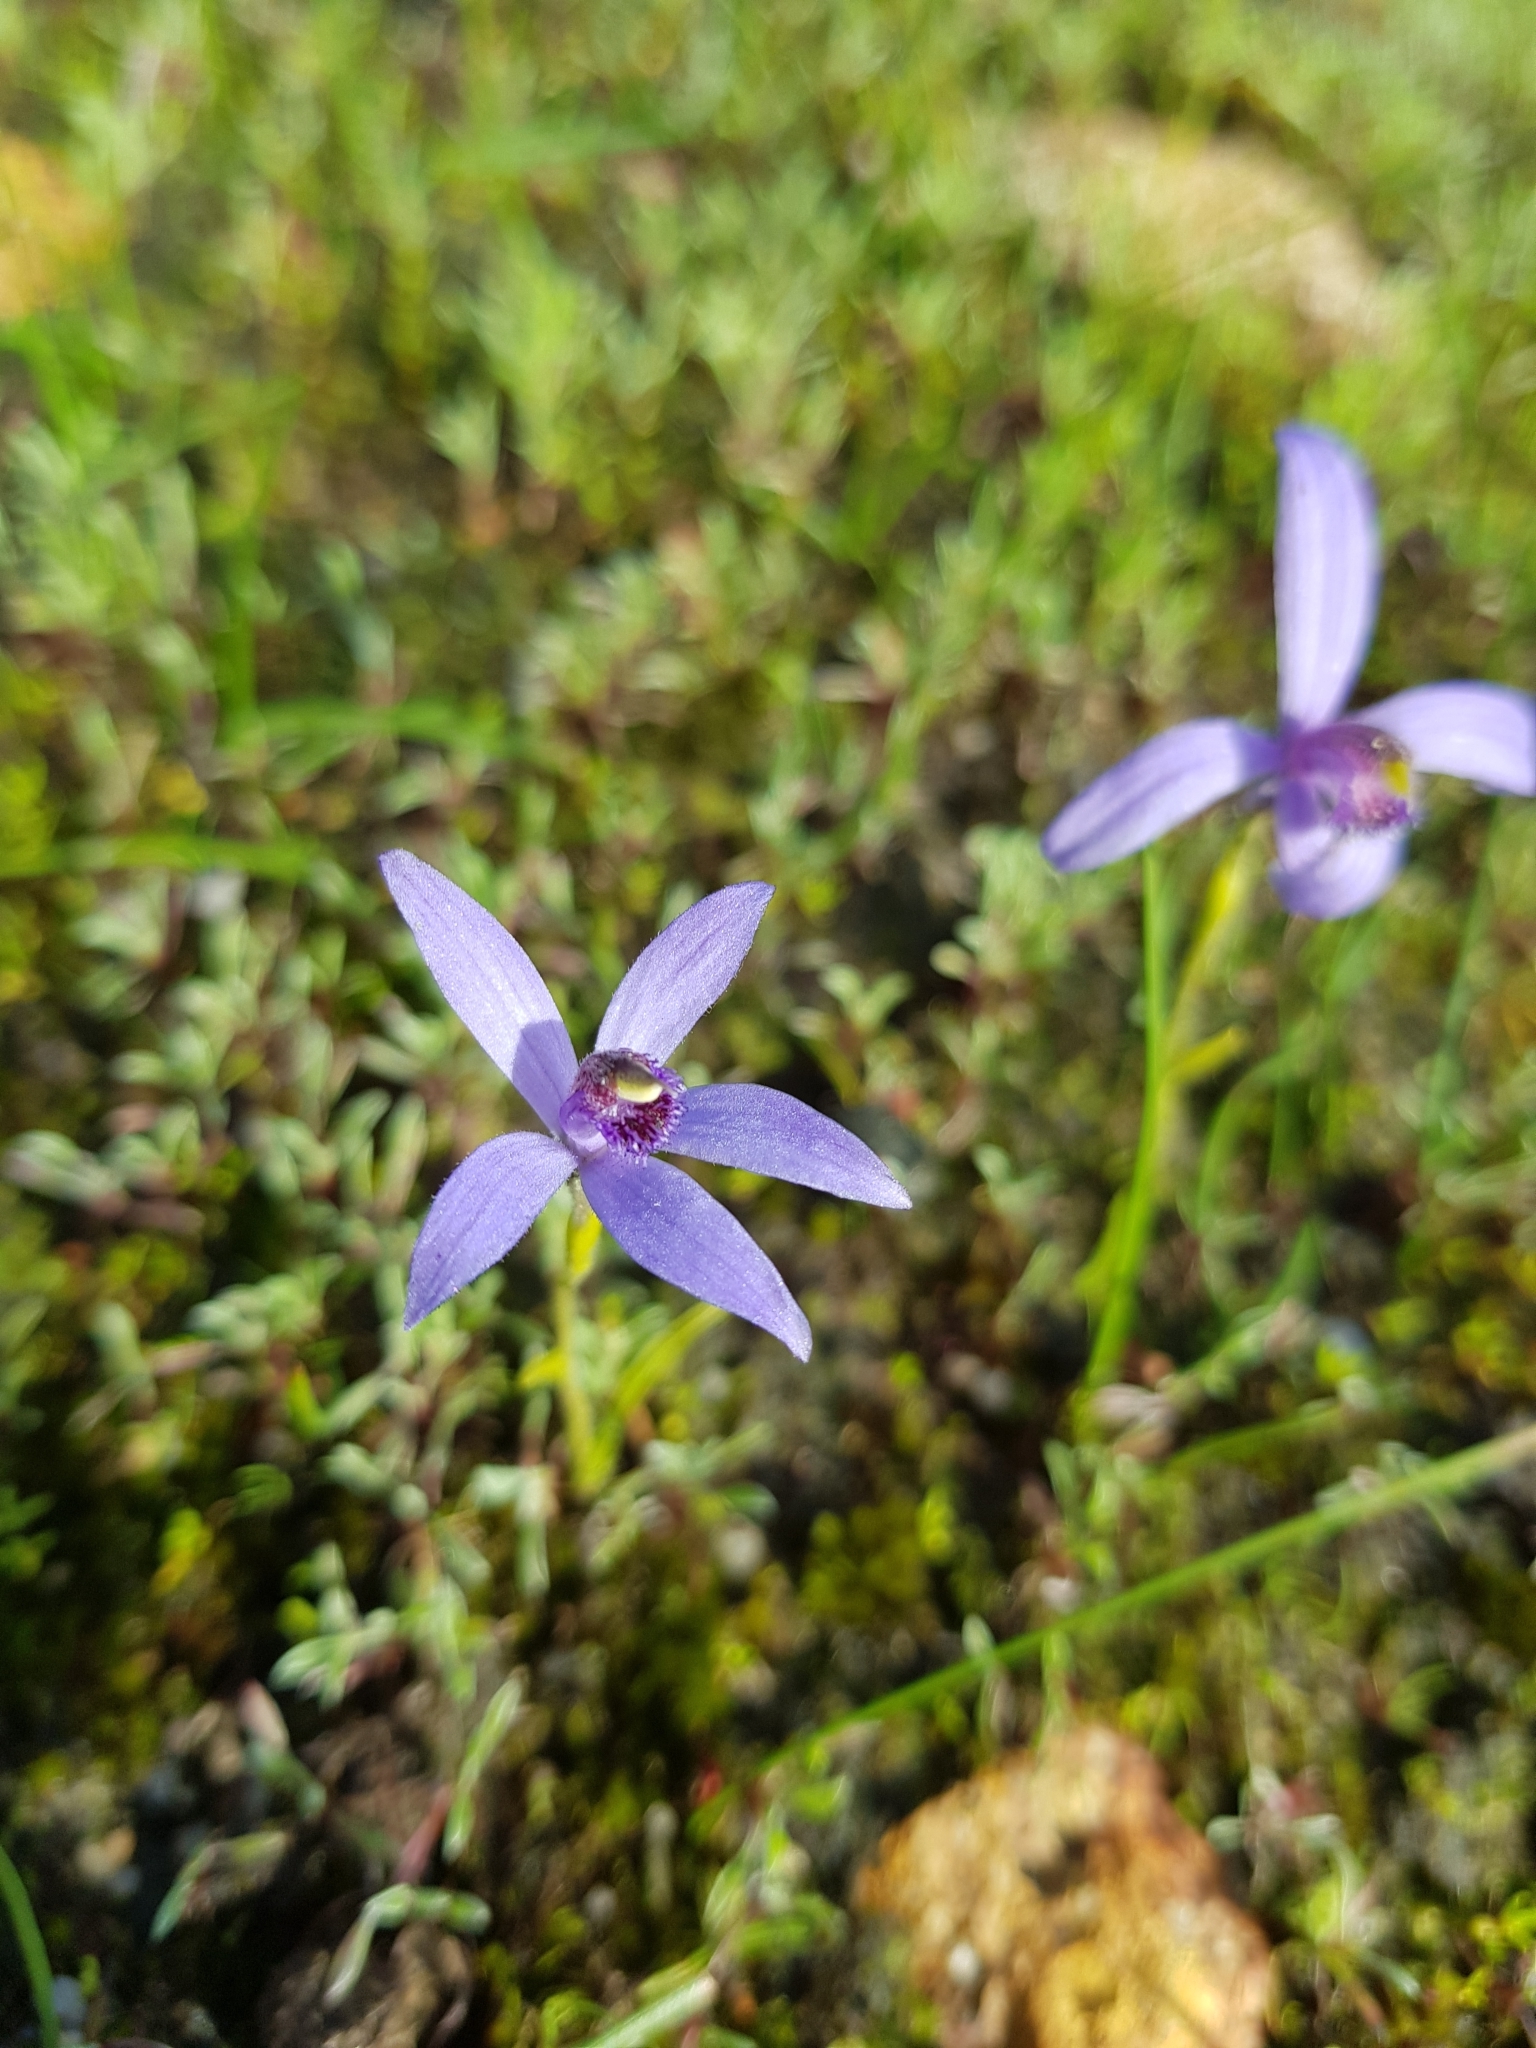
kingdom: Plantae
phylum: Tracheophyta
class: Liliopsida
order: Asparagales
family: Orchidaceae
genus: Pheladenia
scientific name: Pheladenia deformis
